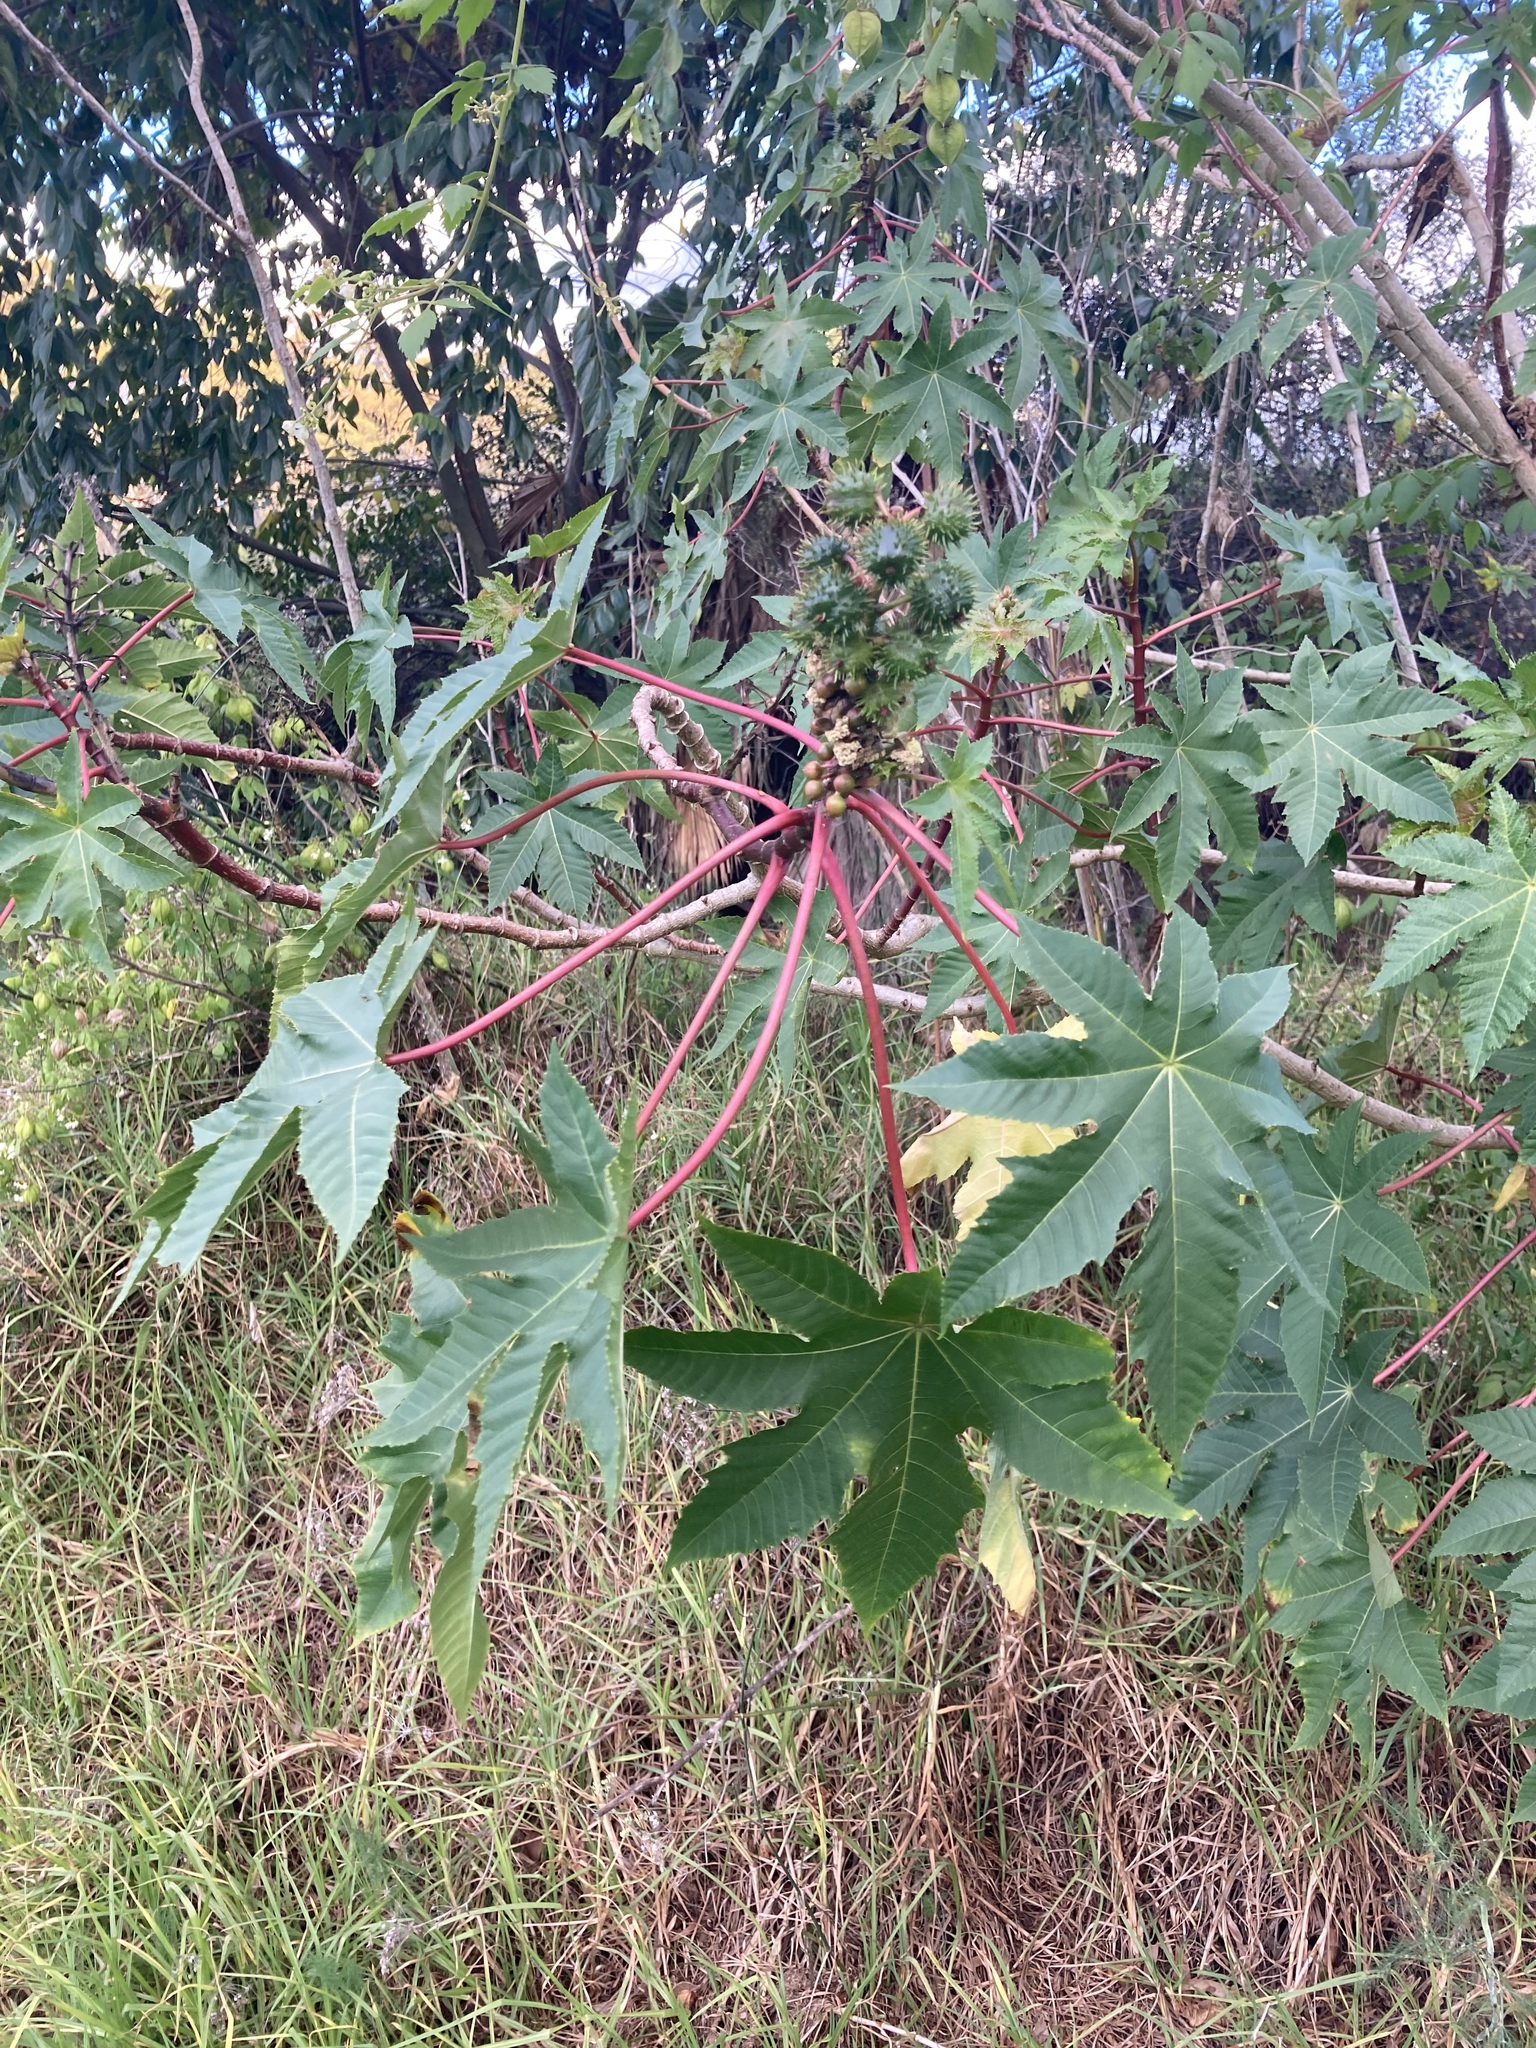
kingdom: Plantae
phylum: Tracheophyta
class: Magnoliopsida
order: Malpighiales
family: Euphorbiaceae
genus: Ricinus
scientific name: Ricinus communis
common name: Castor-oil-plant
